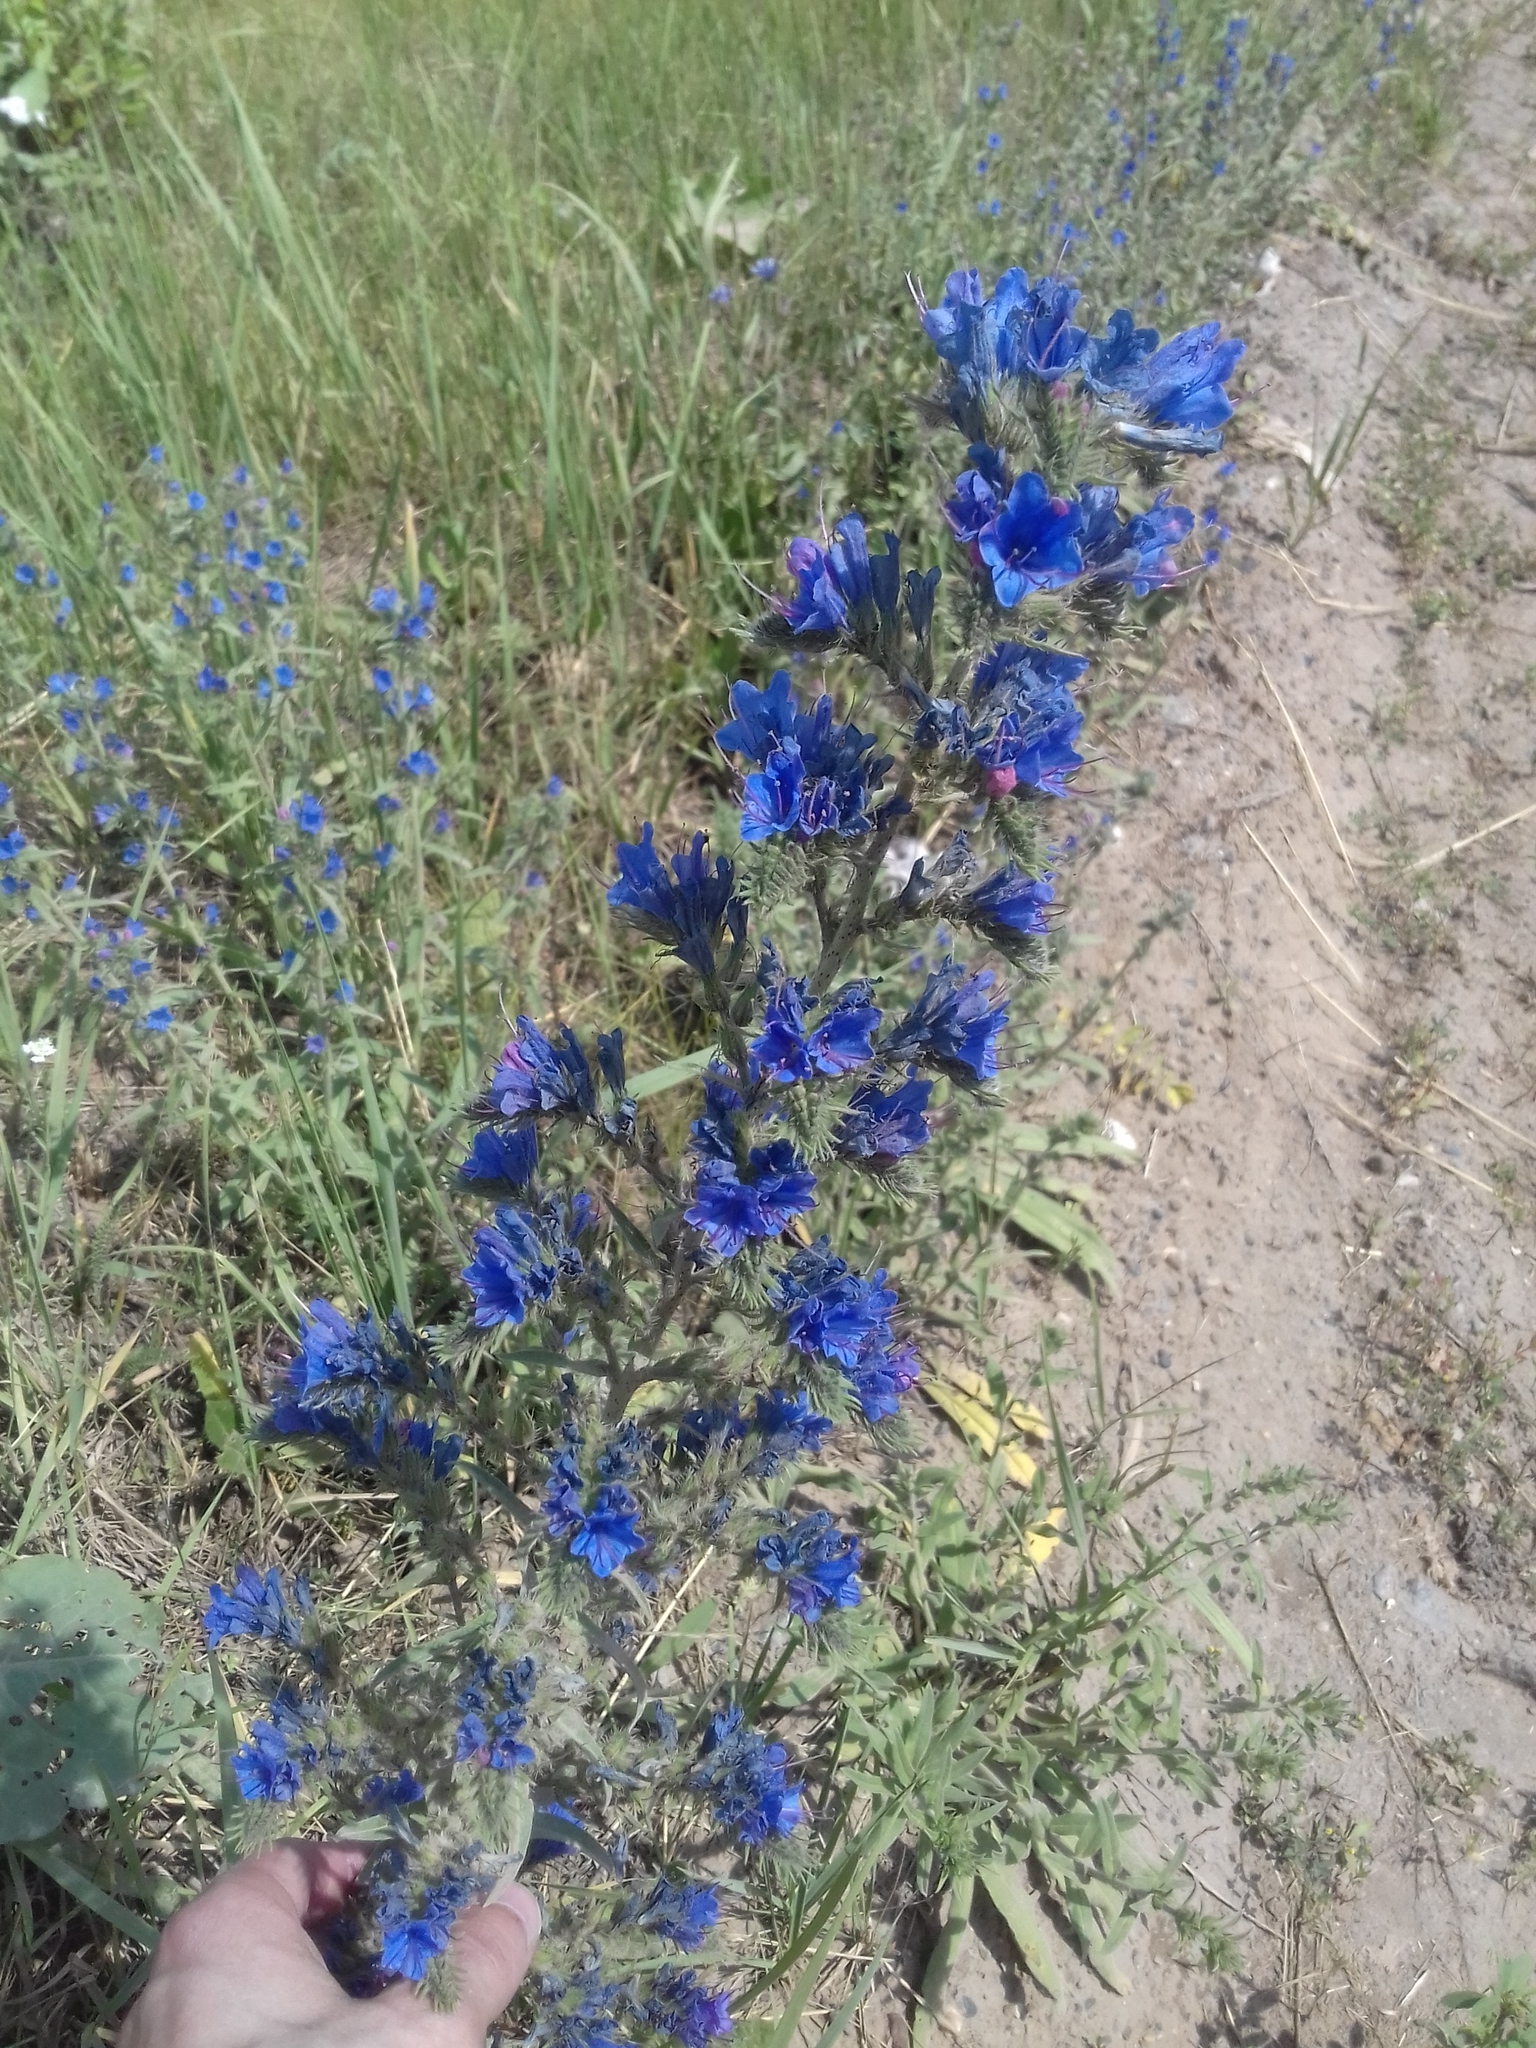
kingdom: Plantae
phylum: Tracheophyta
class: Magnoliopsida
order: Boraginales
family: Boraginaceae
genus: Echium
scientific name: Echium vulgare
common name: Common viper's bugloss
